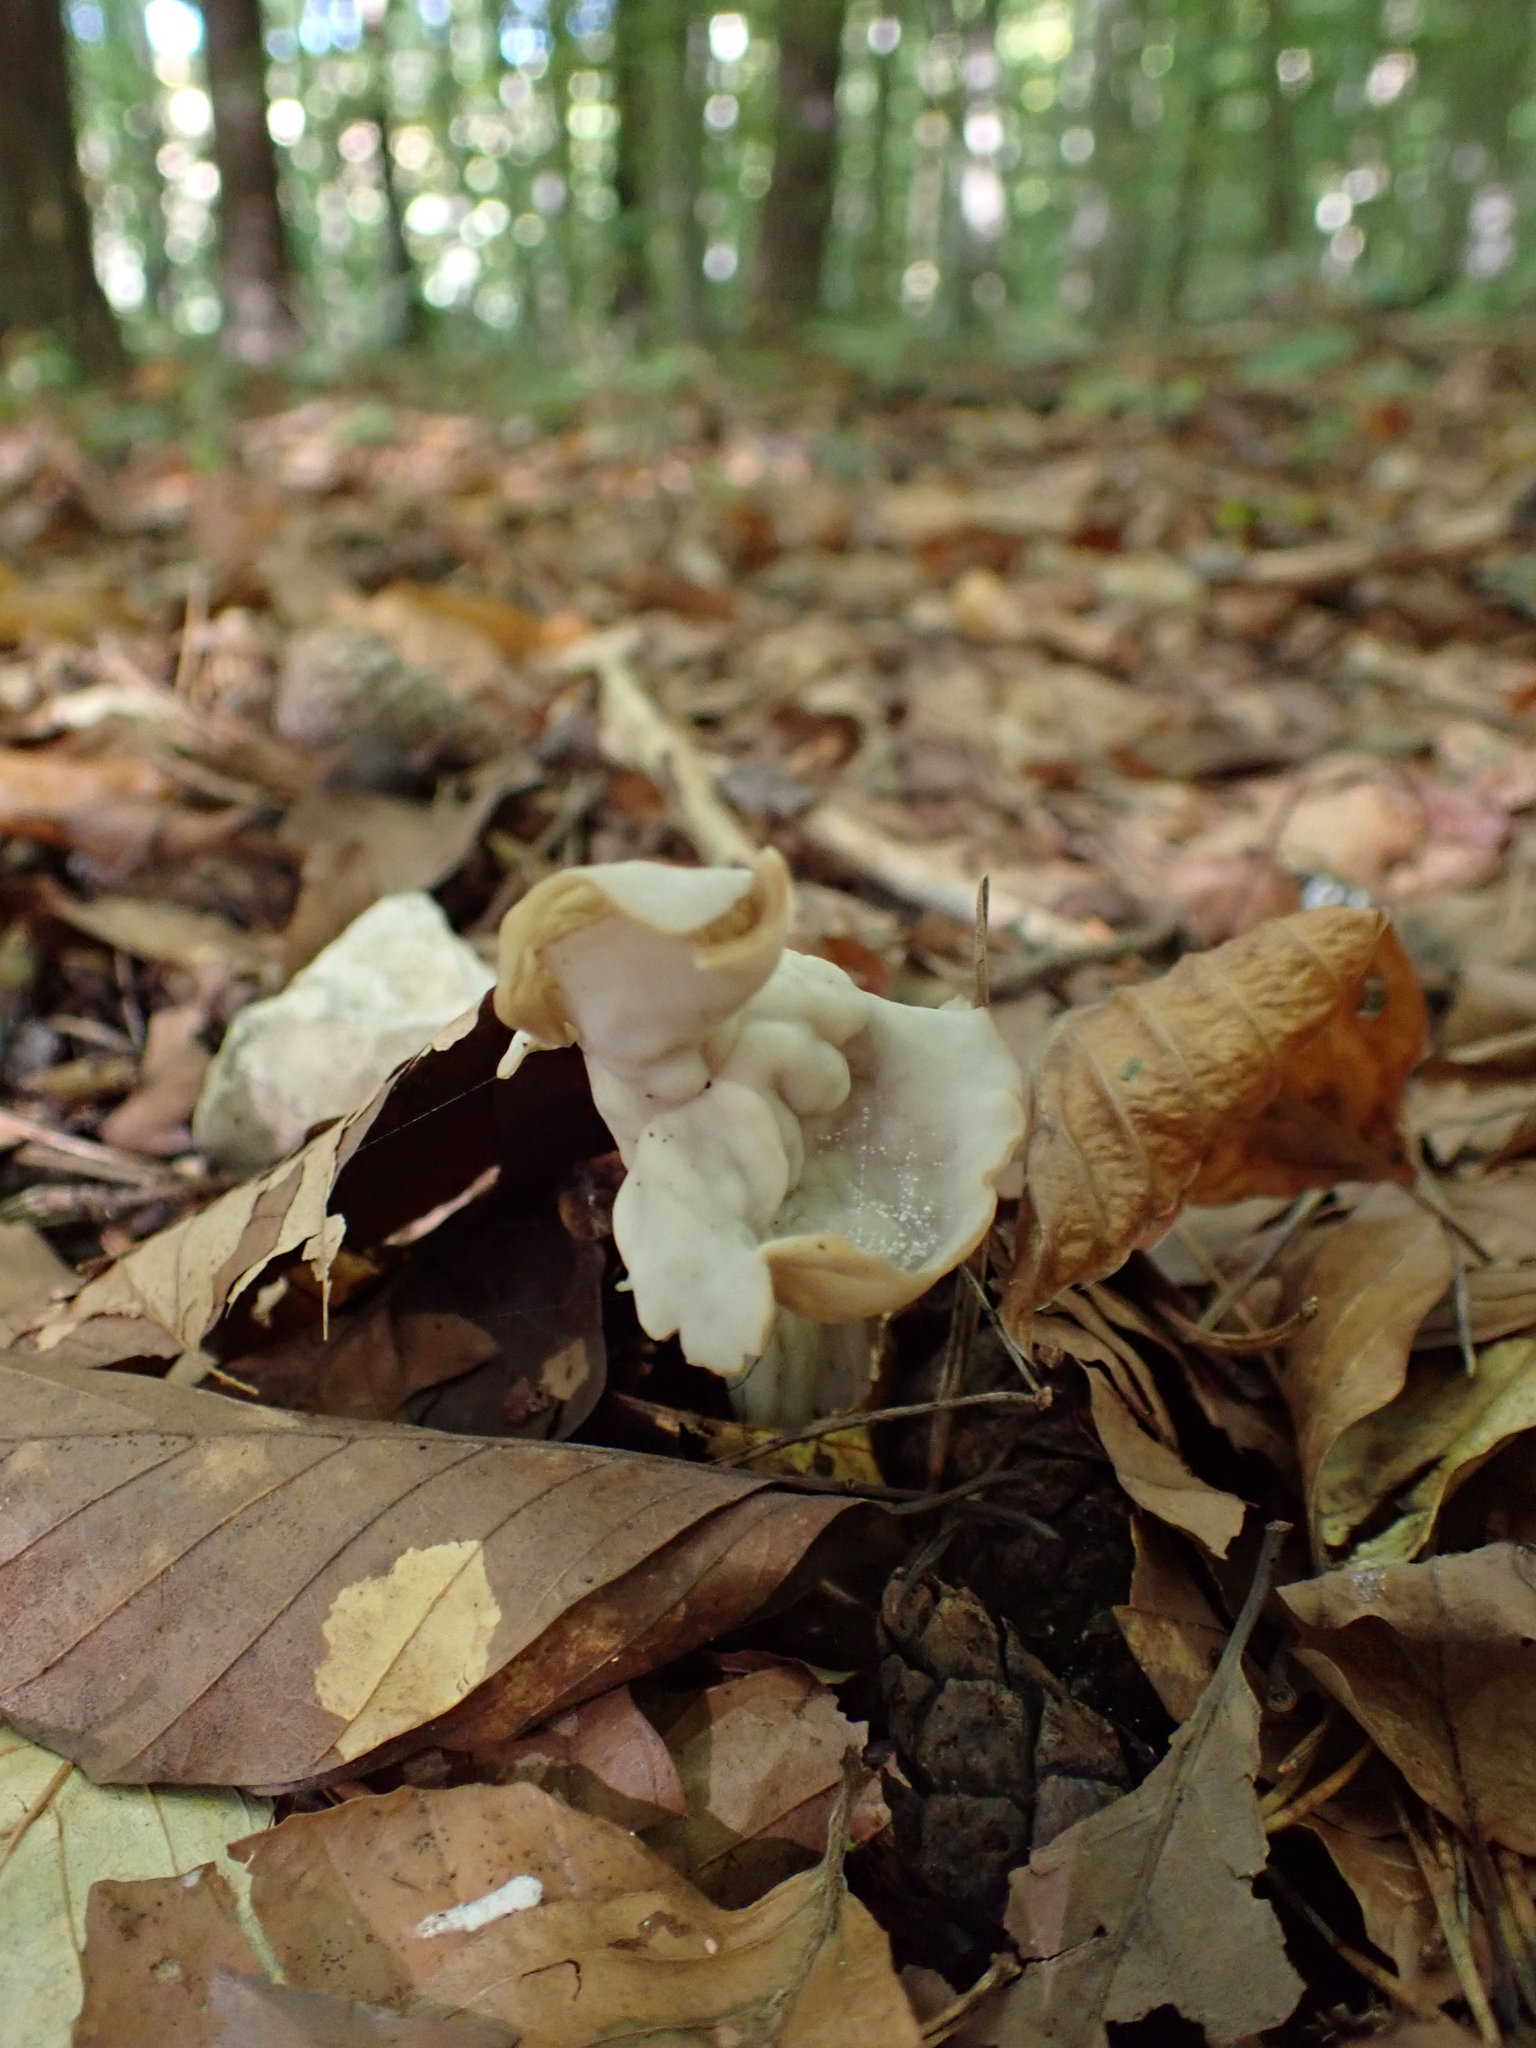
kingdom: Fungi
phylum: Ascomycota
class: Pezizomycetes
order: Pezizales
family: Helvellaceae
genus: Helvella
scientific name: Helvella crispa
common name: White saddle
